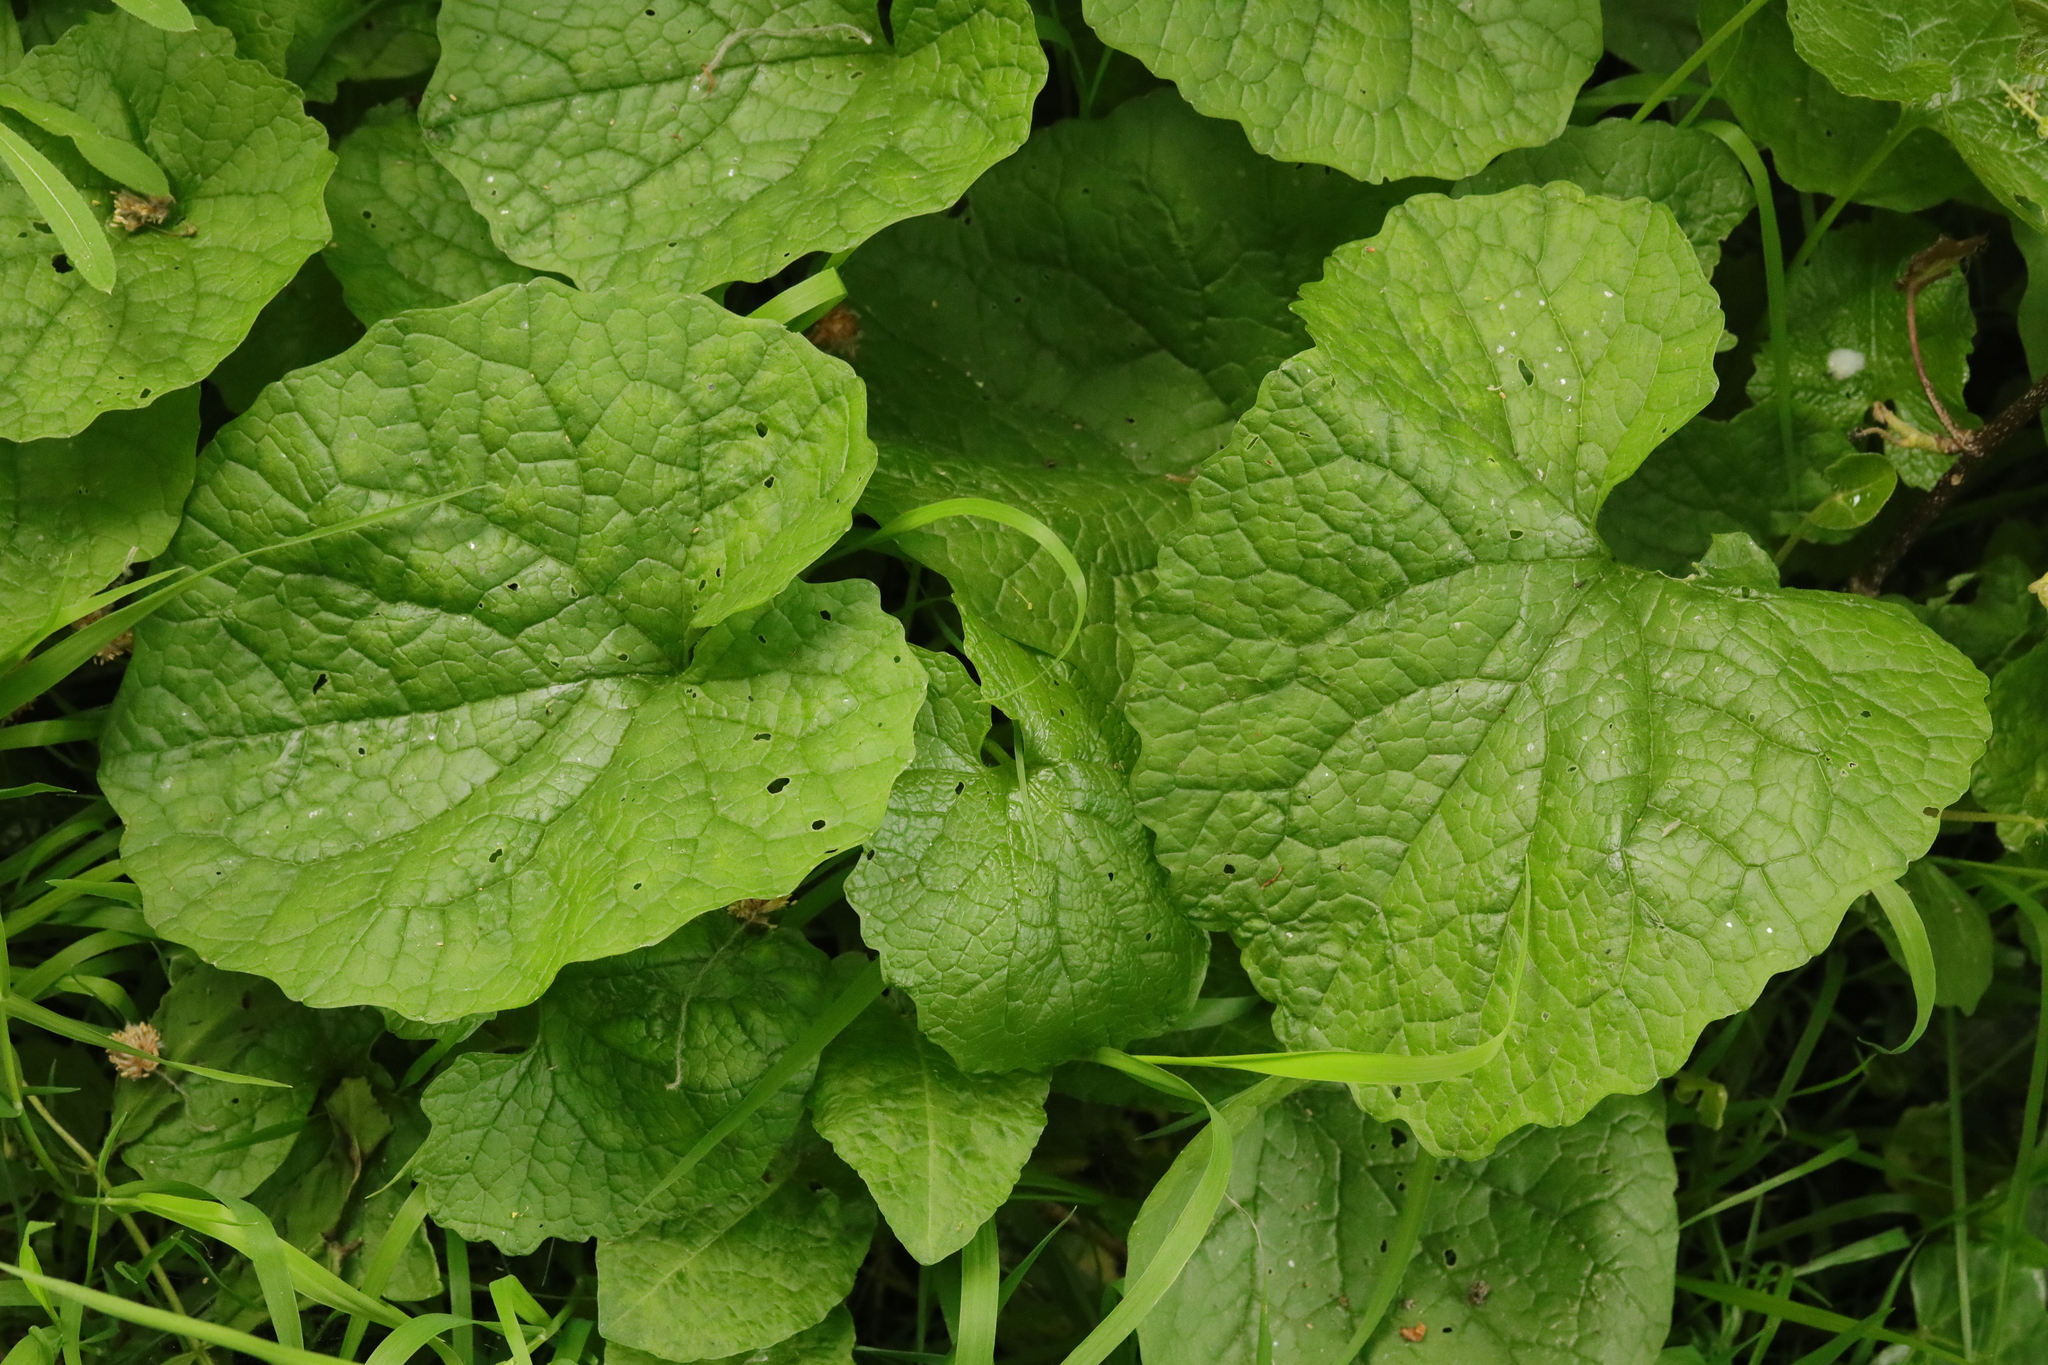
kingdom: Plantae
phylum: Tracheophyta
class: Magnoliopsida
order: Brassicales
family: Brassicaceae
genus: Alliaria
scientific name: Alliaria petiolata
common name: Garlic mustard
